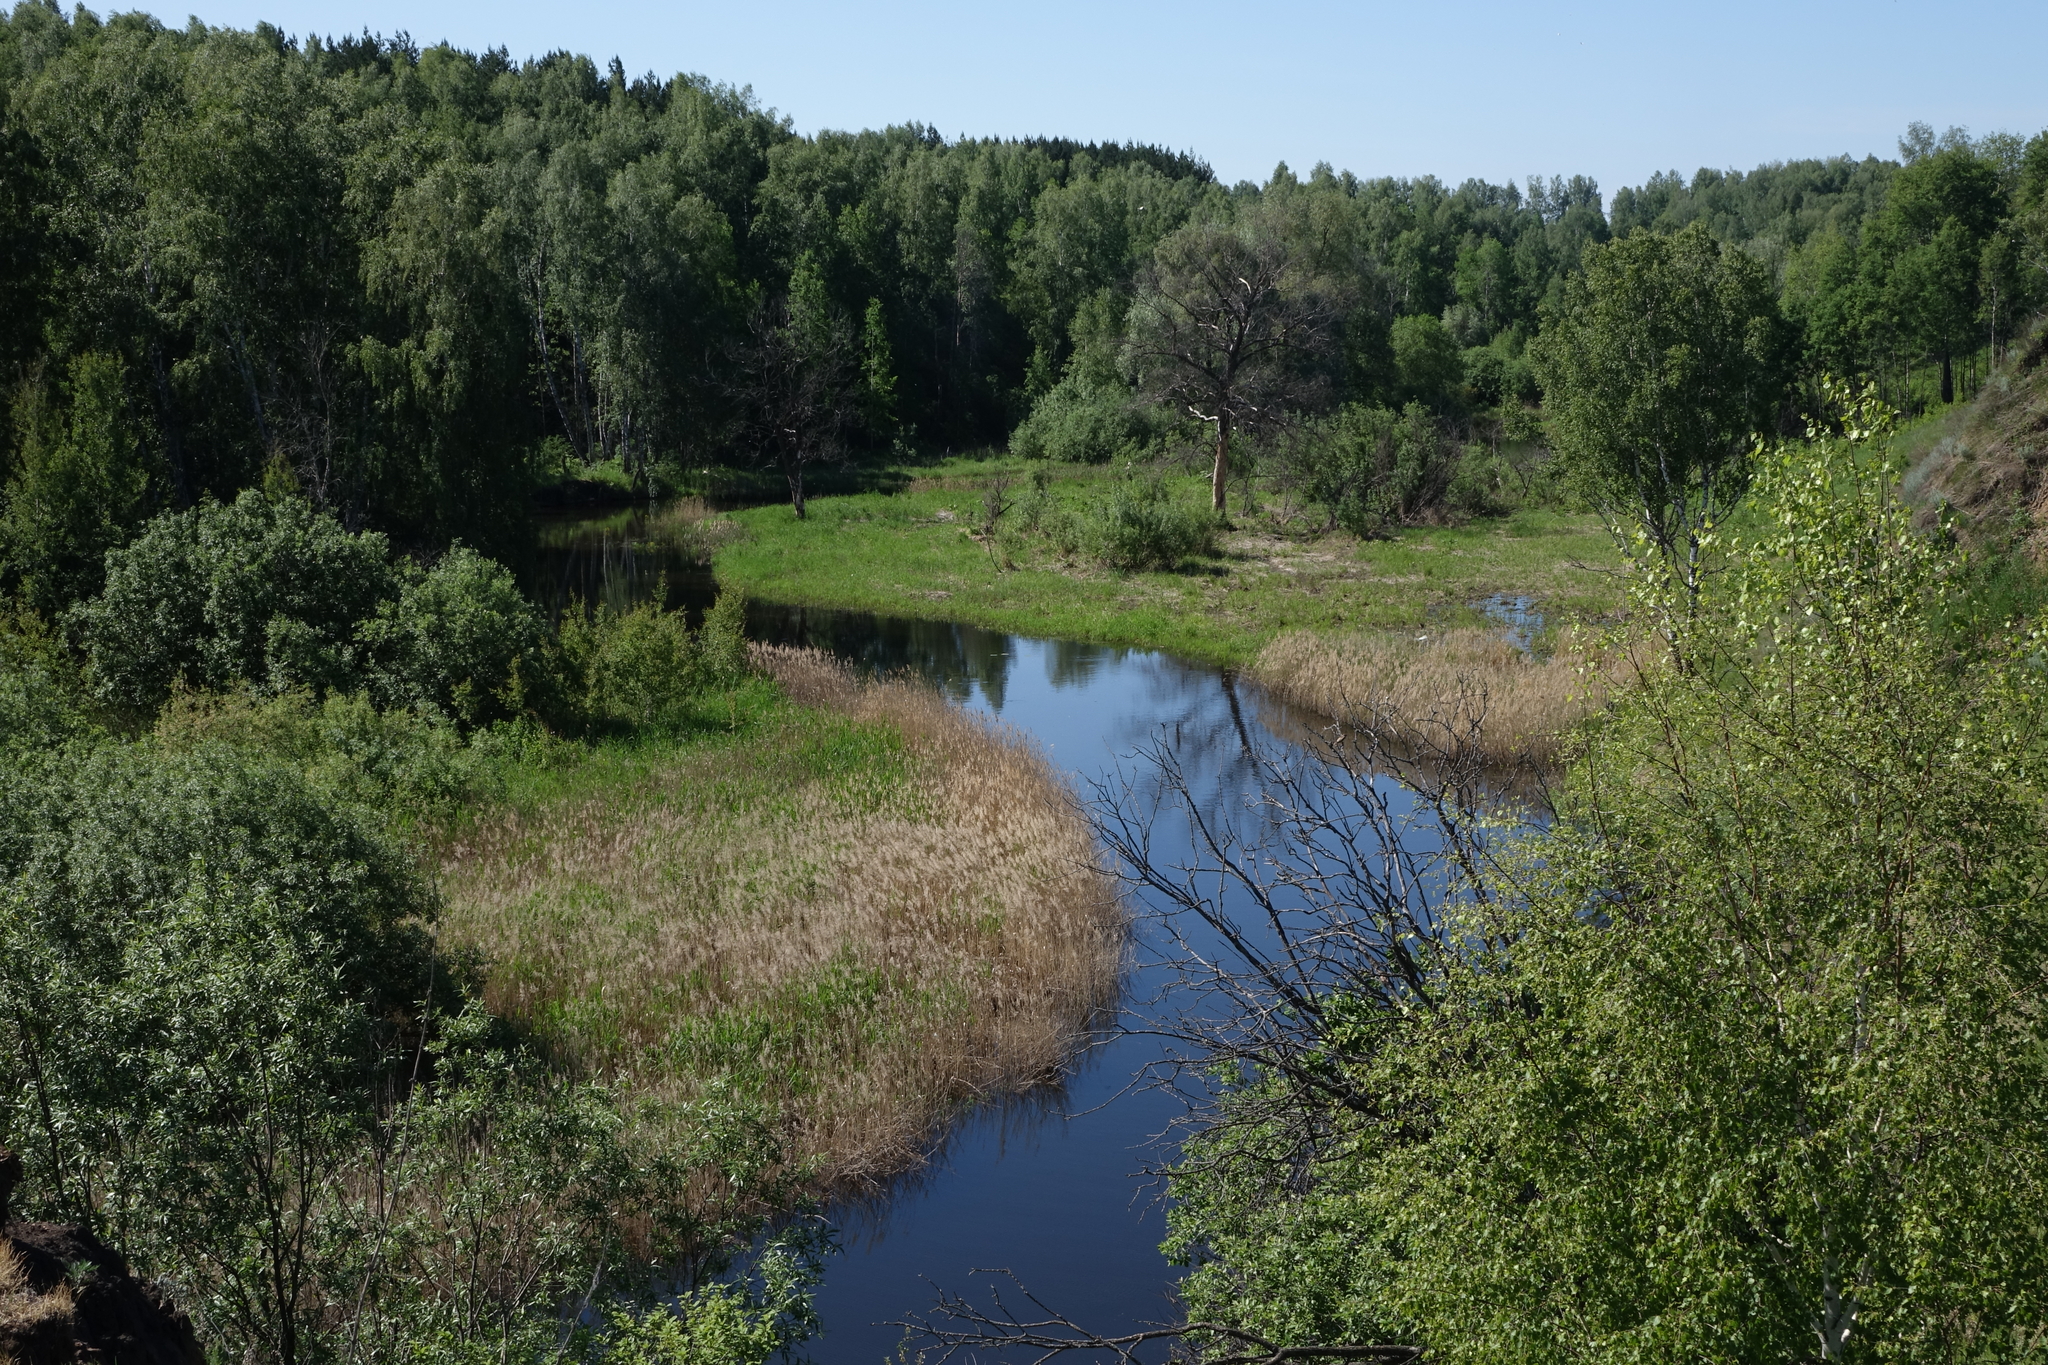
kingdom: Plantae
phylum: Tracheophyta
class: Liliopsida
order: Poales
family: Poaceae
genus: Phragmites
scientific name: Phragmites australis
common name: Common reed
